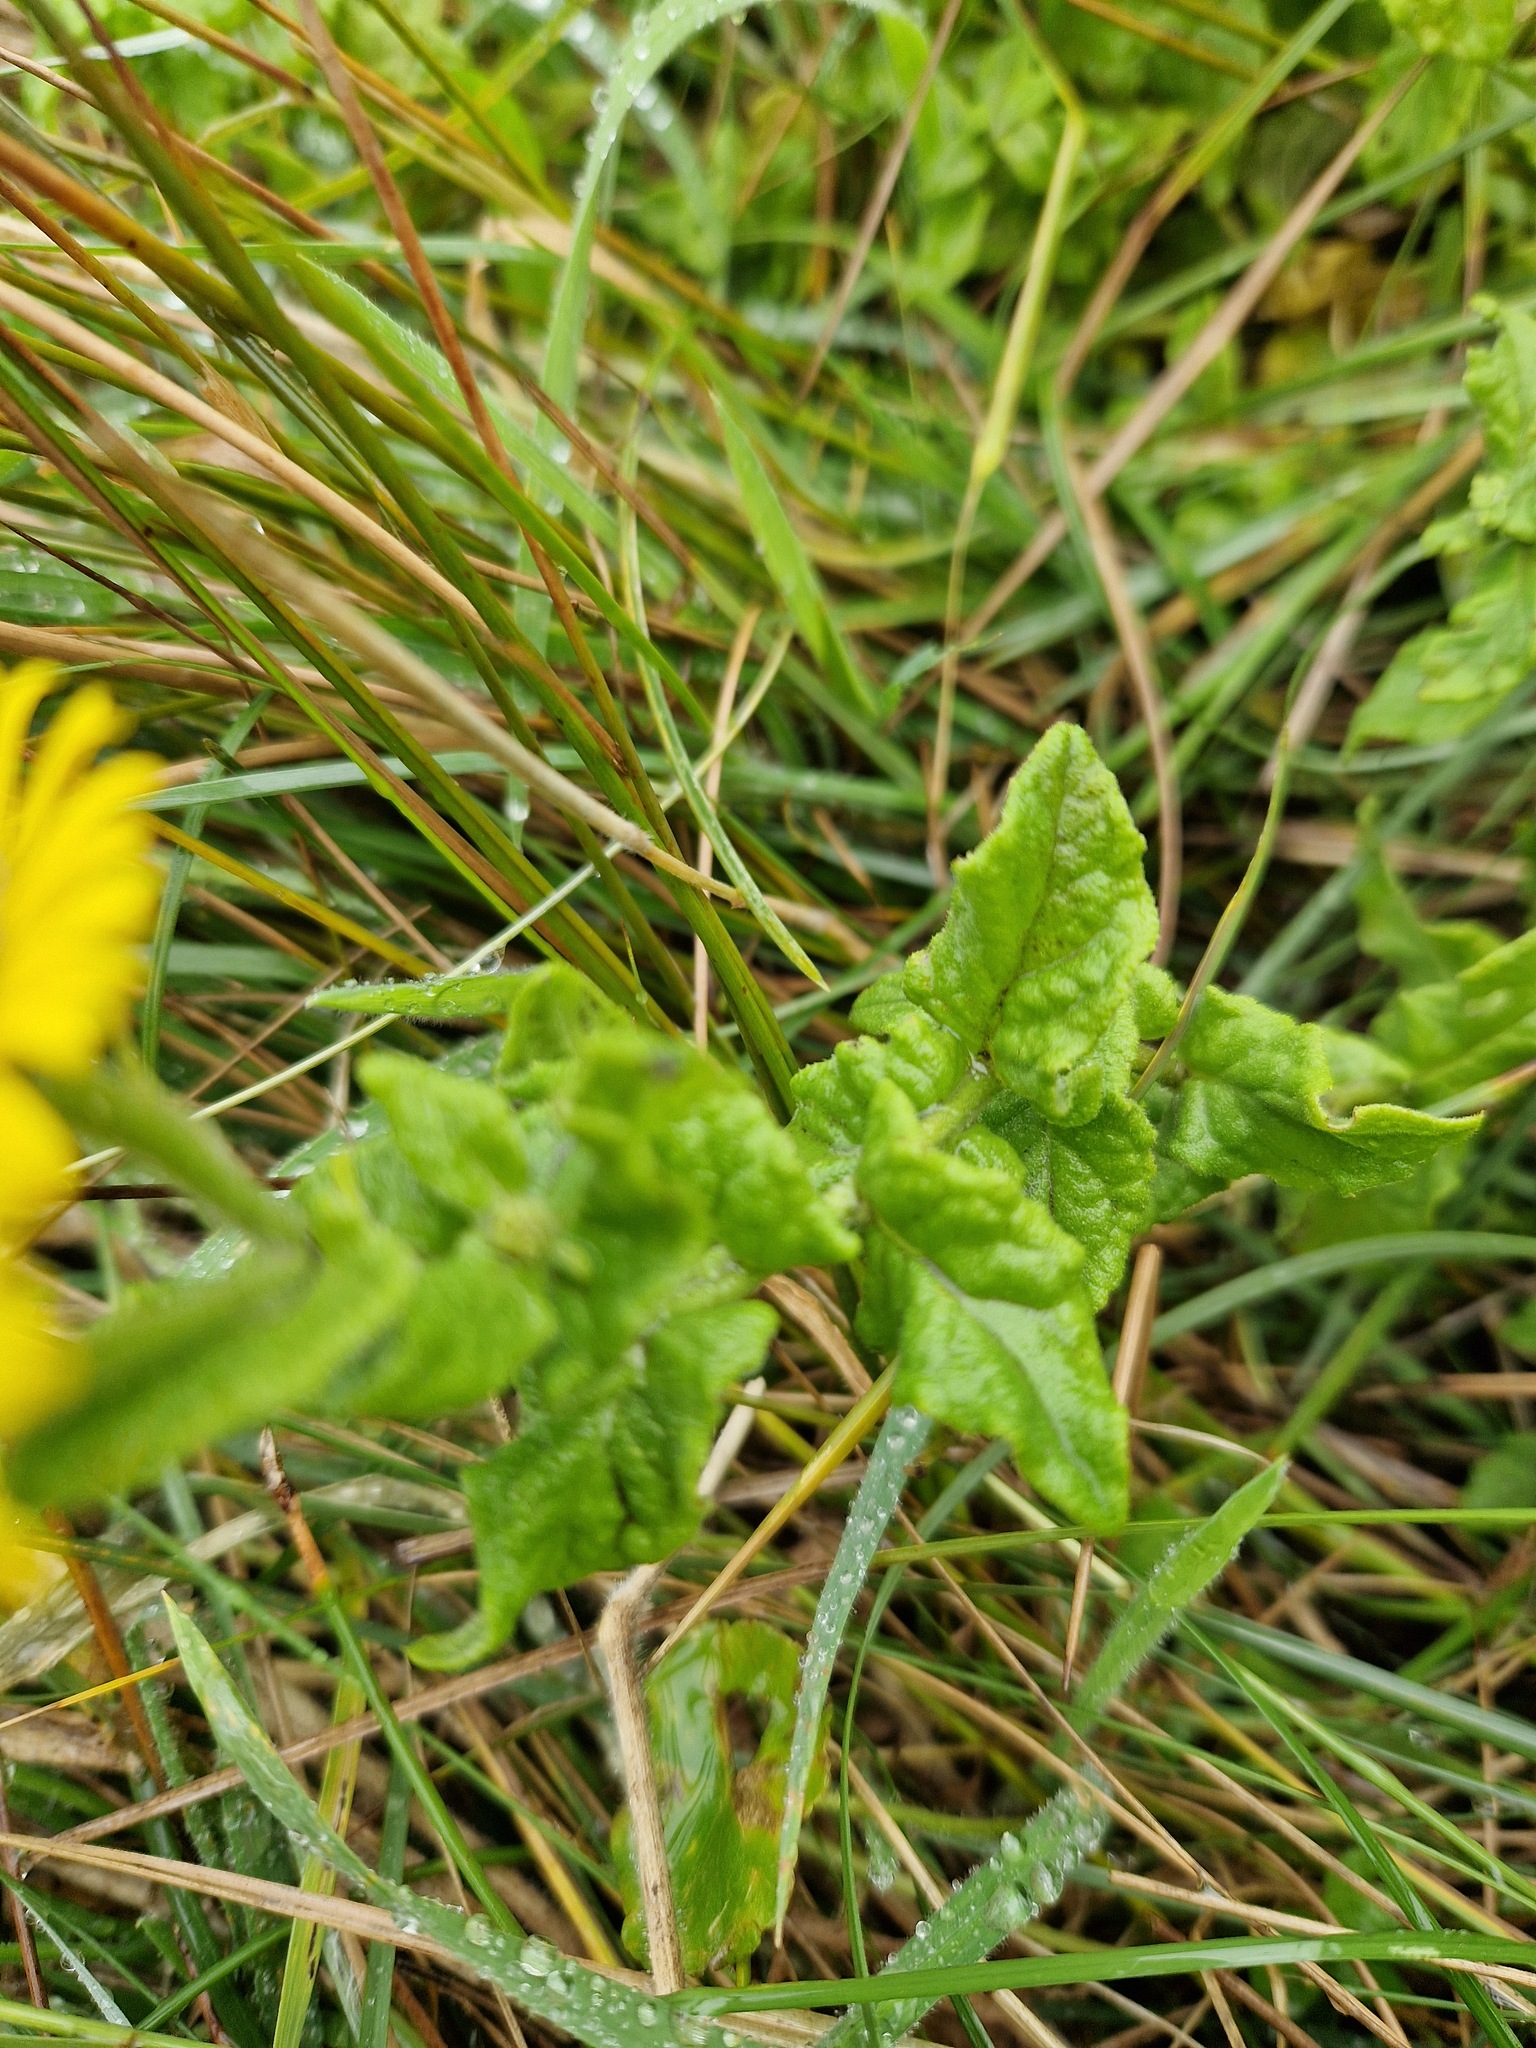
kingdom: Plantae
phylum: Tracheophyta
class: Magnoliopsida
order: Asterales
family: Asteraceae
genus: Pulicaria
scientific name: Pulicaria dysenterica
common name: Common fleabane
